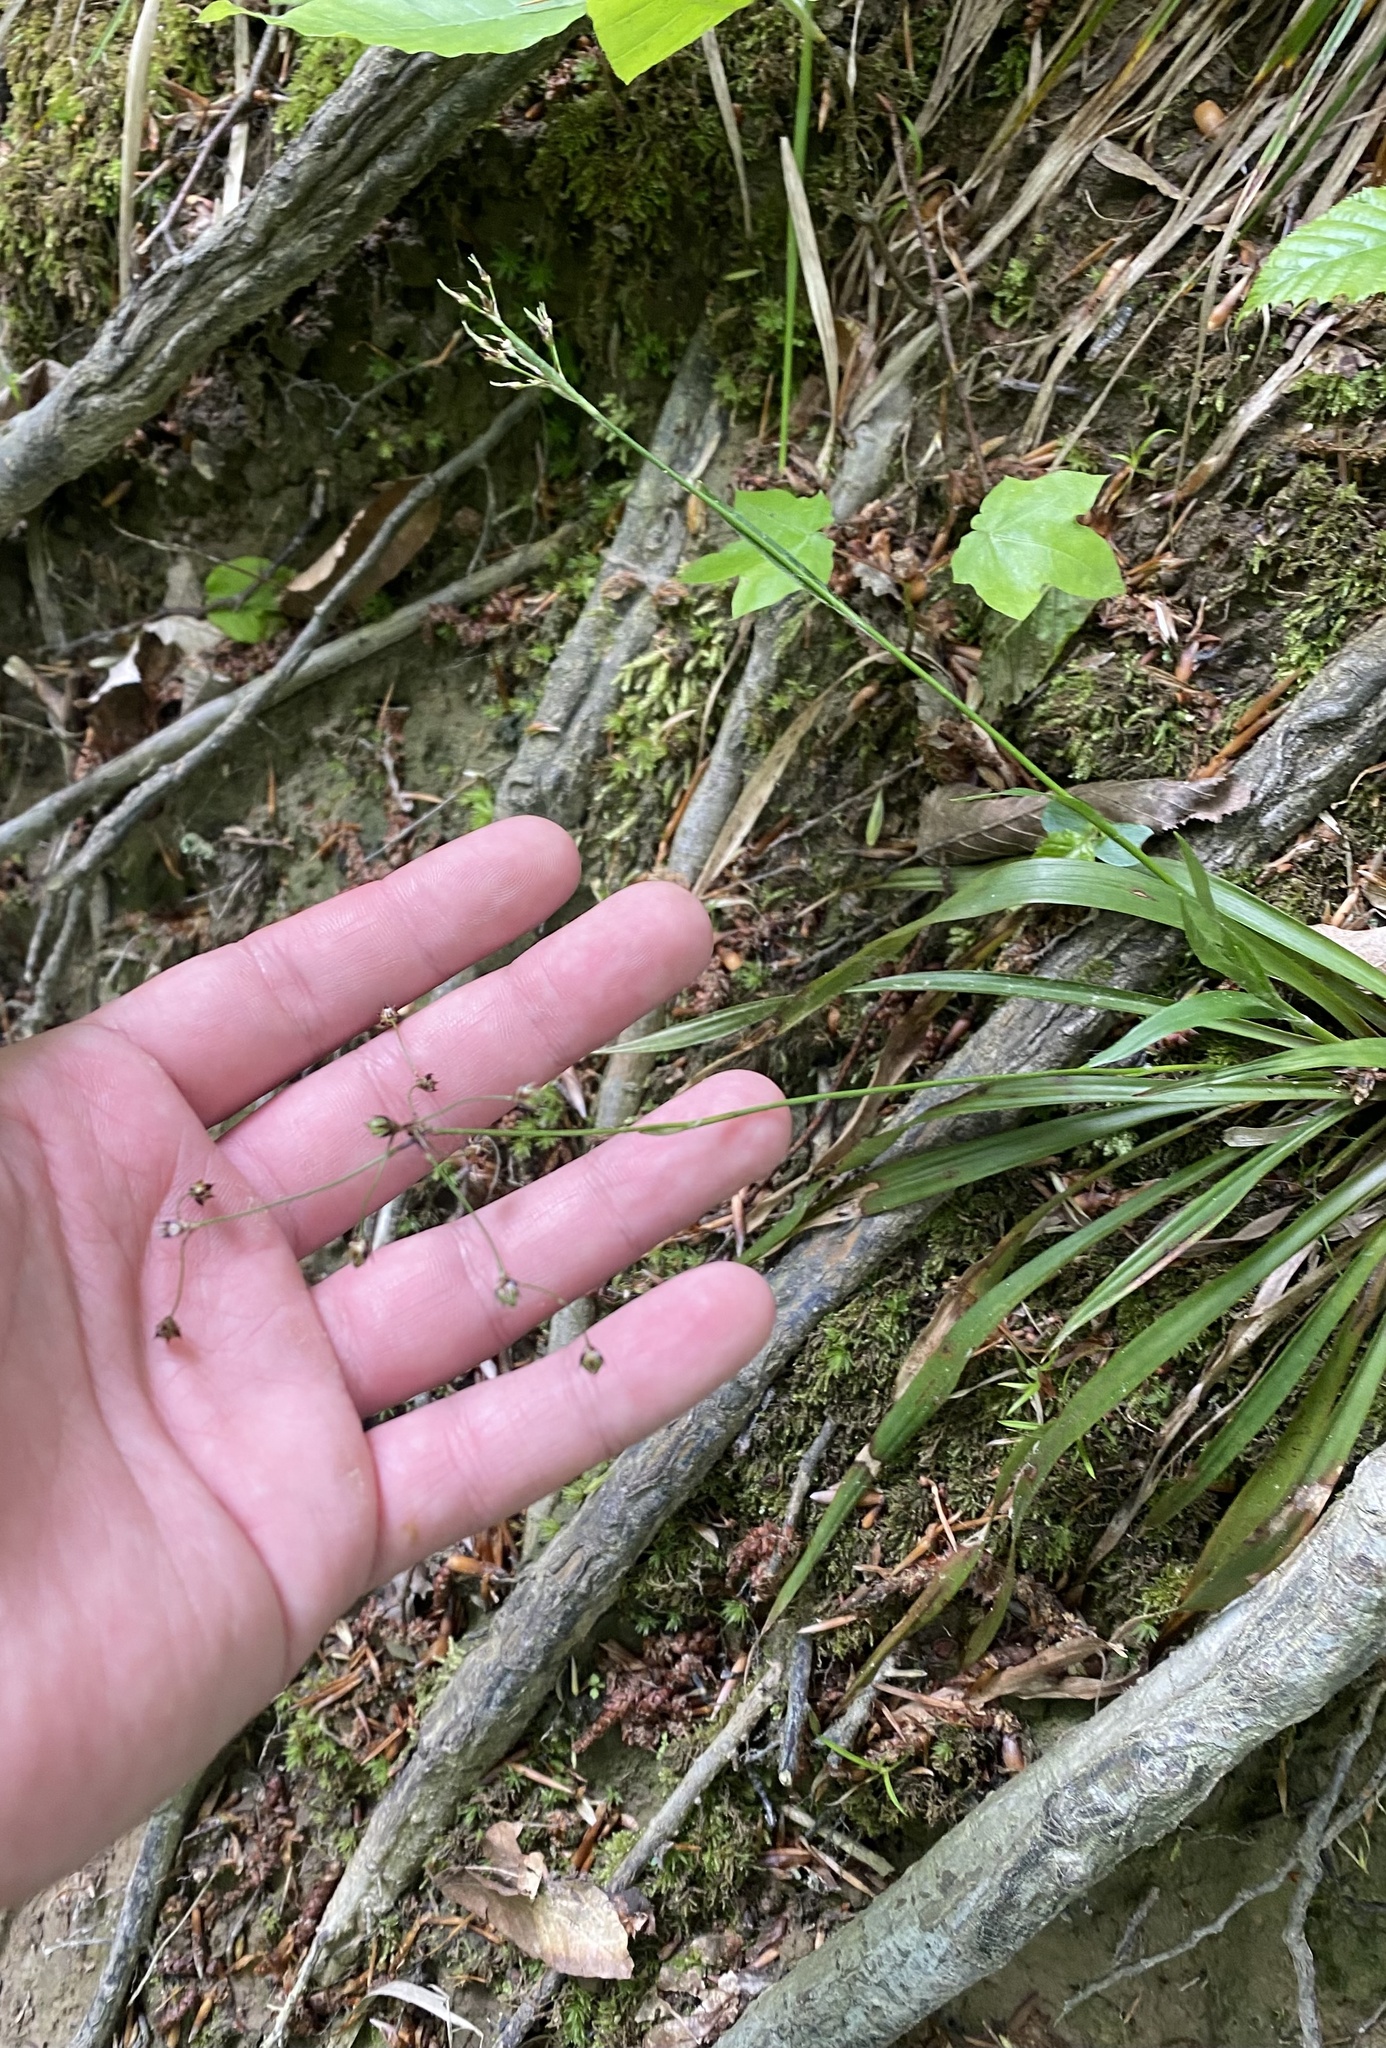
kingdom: Plantae
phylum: Tracheophyta
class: Liliopsida
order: Poales
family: Juncaceae
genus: Luzula
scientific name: Luzula forsteri
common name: Southern wood-rush
